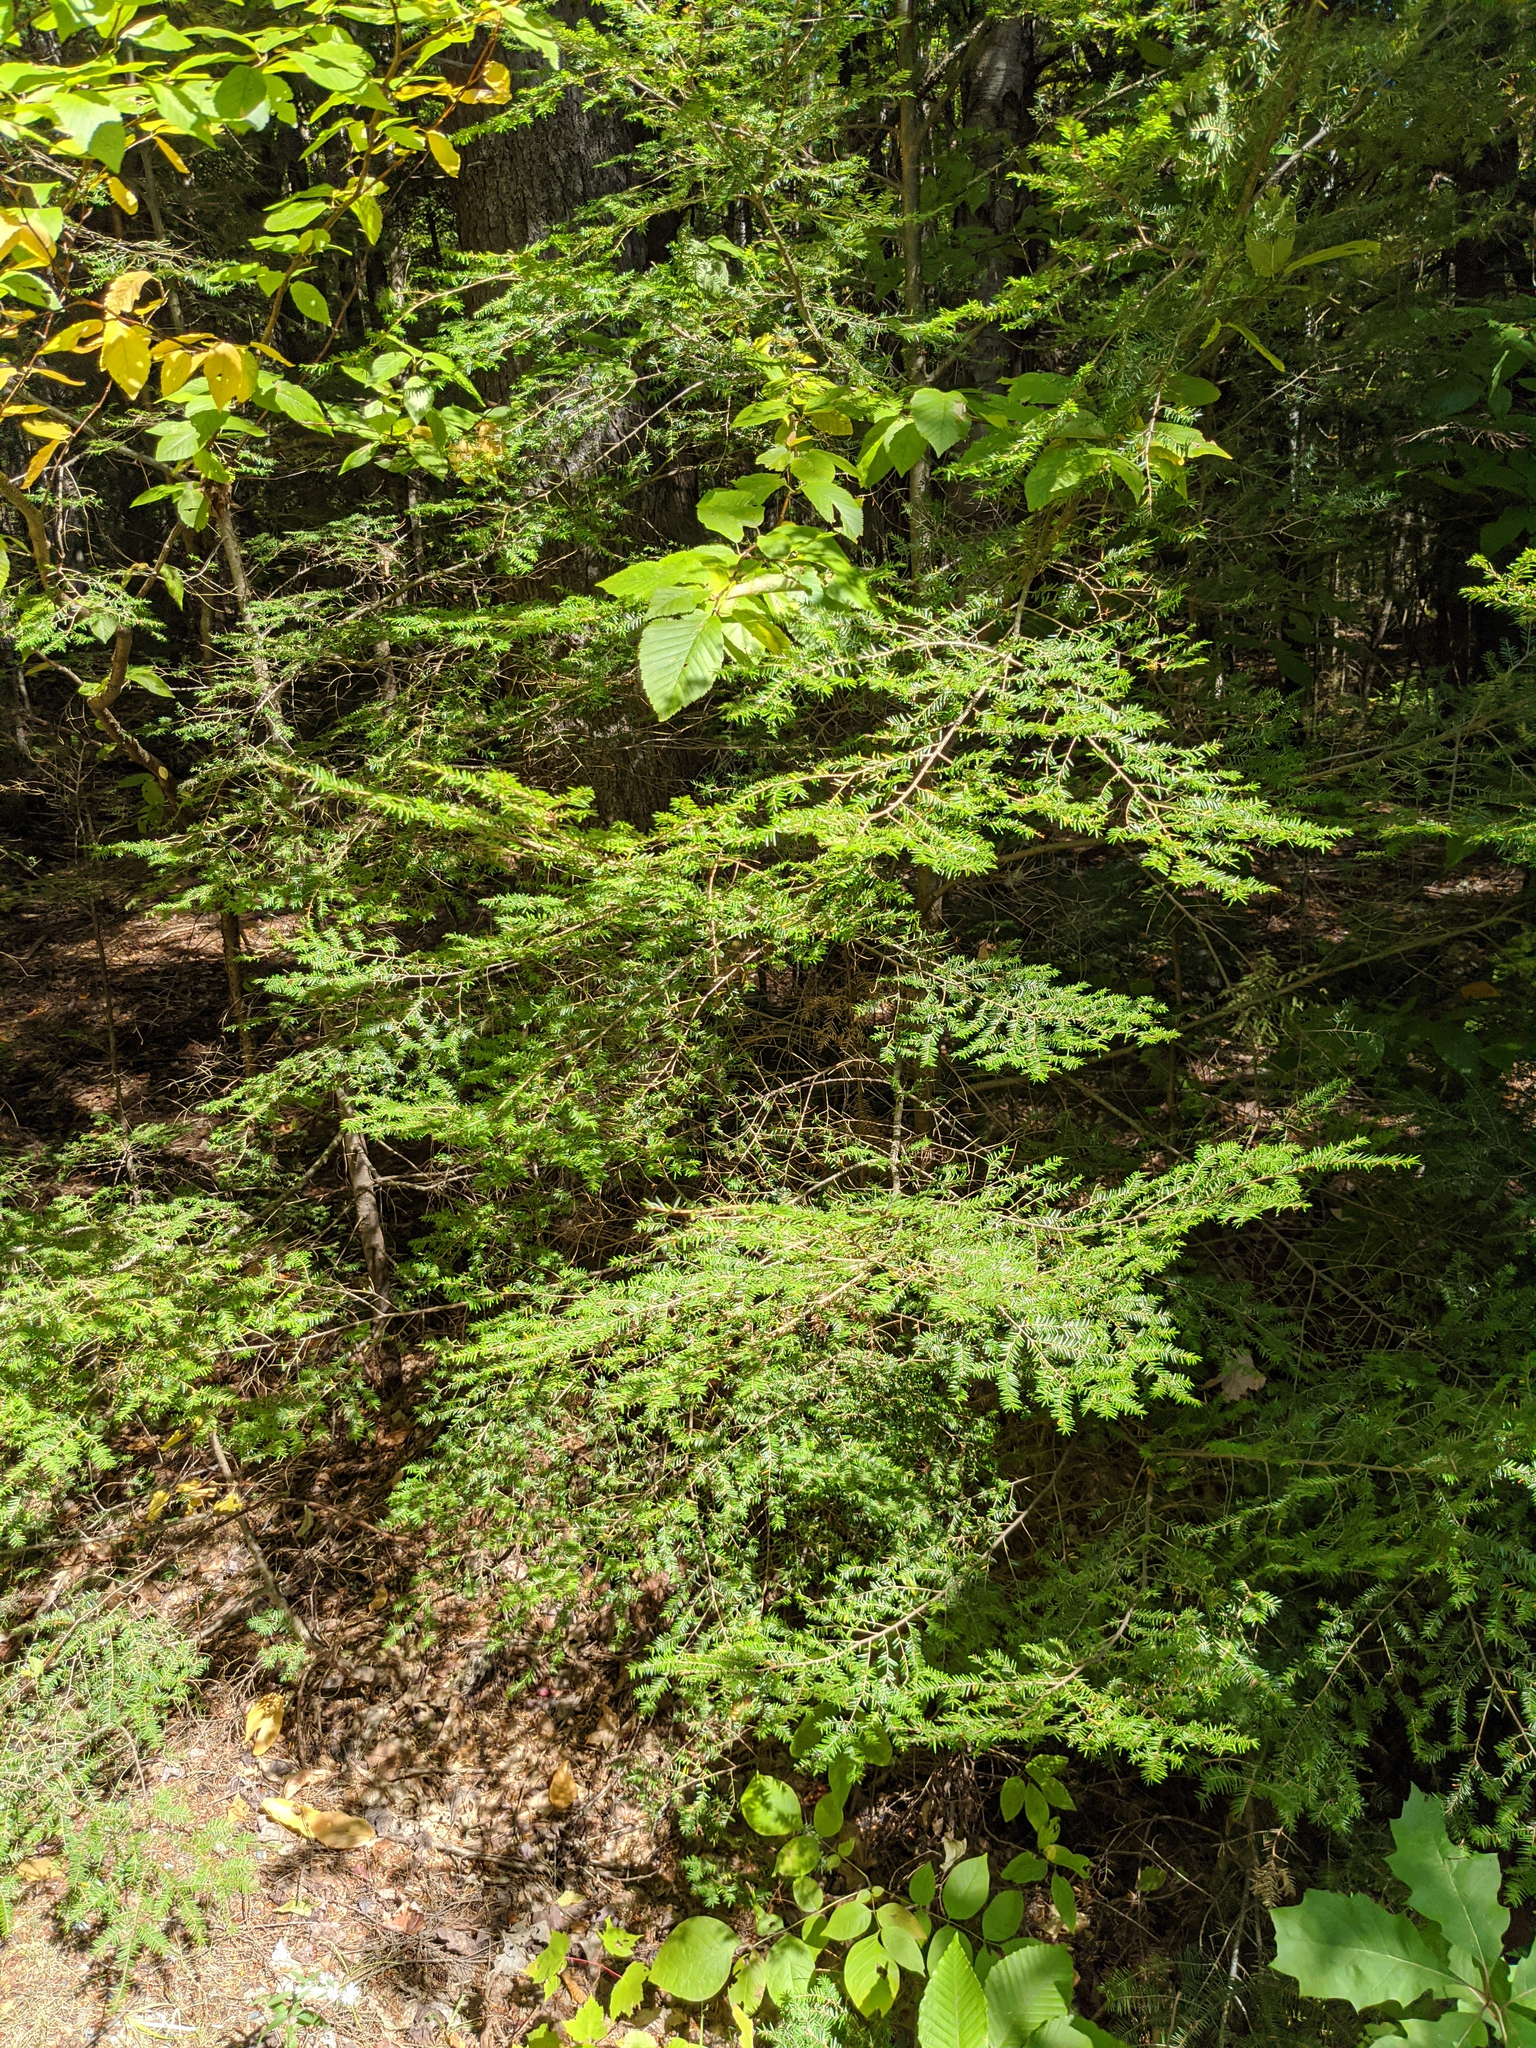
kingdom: Plantae
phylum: Tracheophyta
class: Pinopsida
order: Pinales
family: Pinaceae
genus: Tsuga
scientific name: Tsuga canadensis
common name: Eastern hemlock
